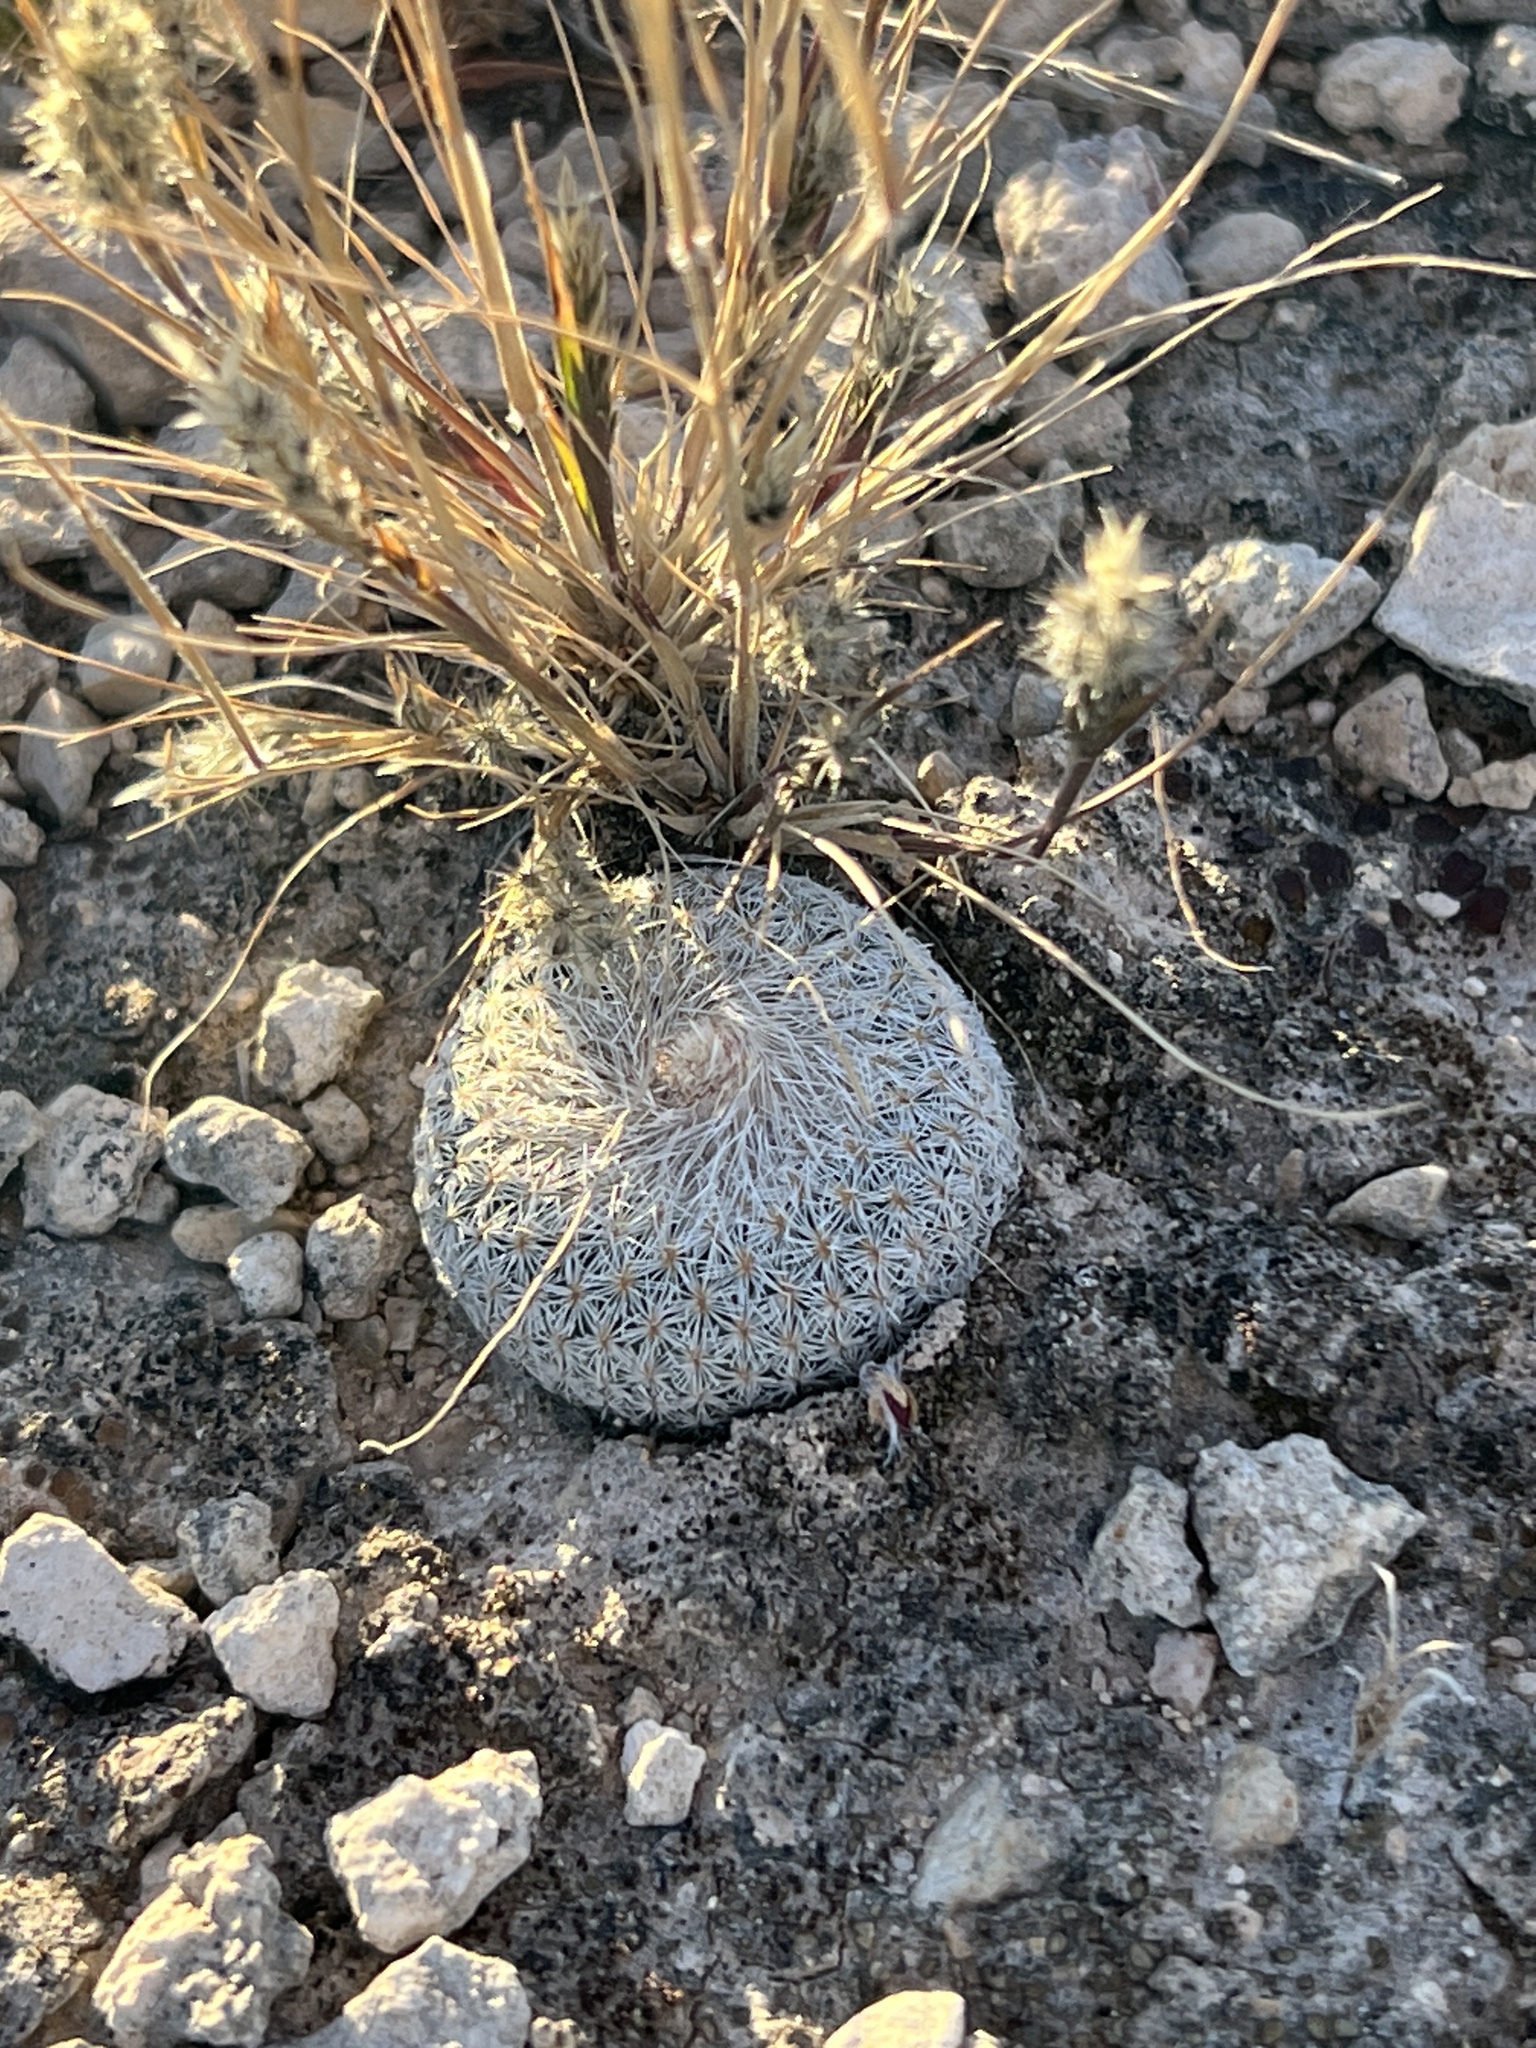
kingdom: Plantae
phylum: Tracheophyta
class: Magnoliopsida
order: Caryophyllales
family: Cactaceae
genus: Epithelantha
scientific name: Epithelantha micromeris
